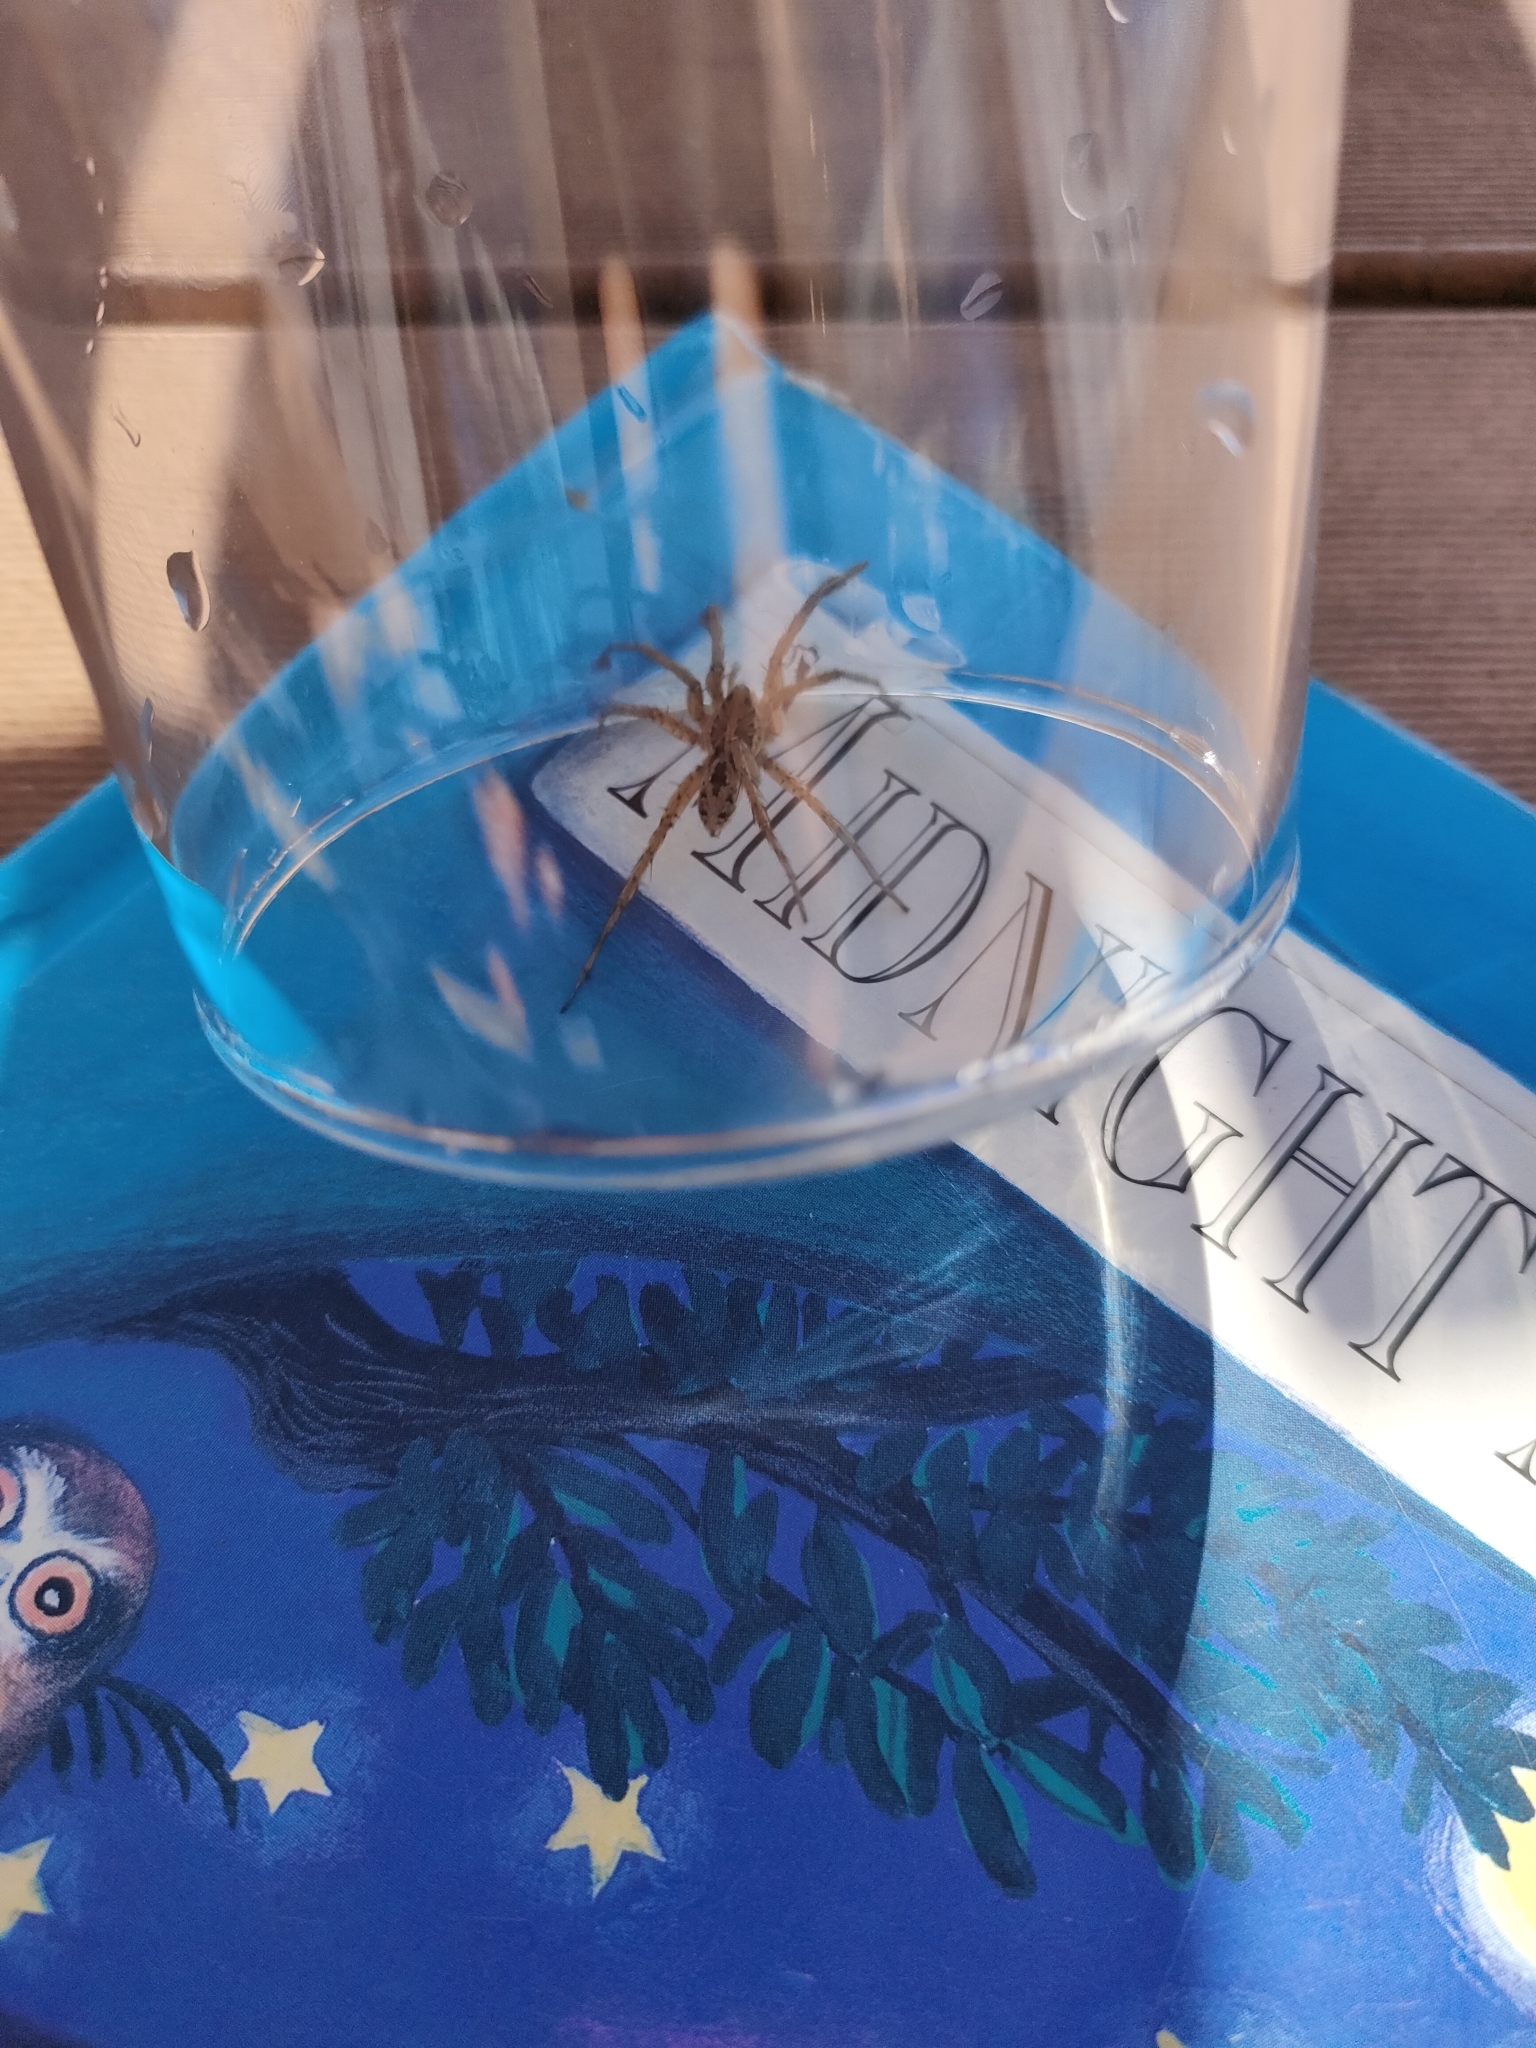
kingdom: Animalia
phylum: Arthropoda
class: Arachnida
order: Araneae
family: Lycosidae
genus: Hogna
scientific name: Hogna crispipes
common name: Wolf spider
